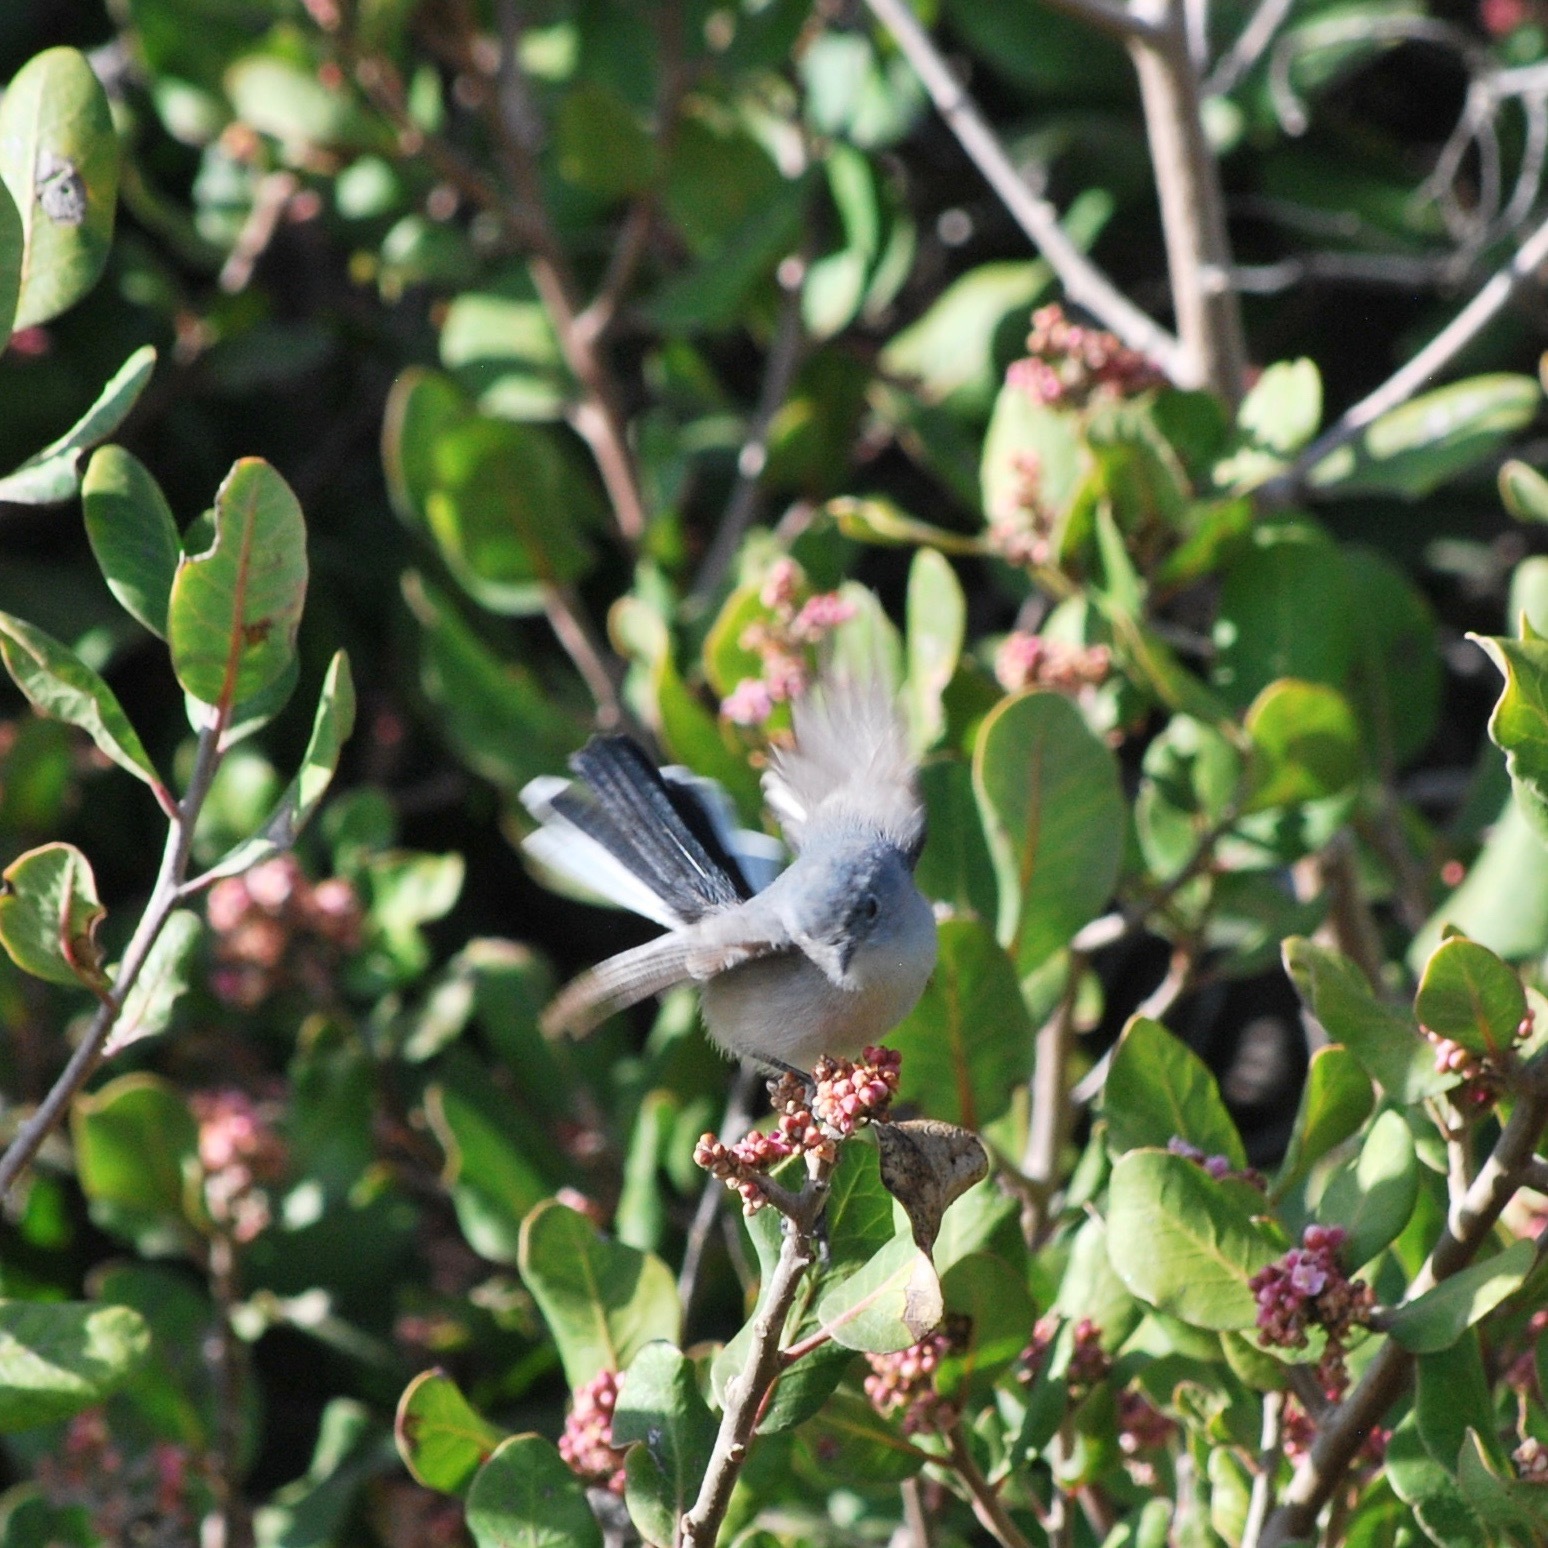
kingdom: Animalia
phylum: Chordata
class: Aves
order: Passeriformes
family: Polioptilidae
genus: Polioptila
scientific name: Polioptila caerulea
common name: Blue-gray gnatcatcher
